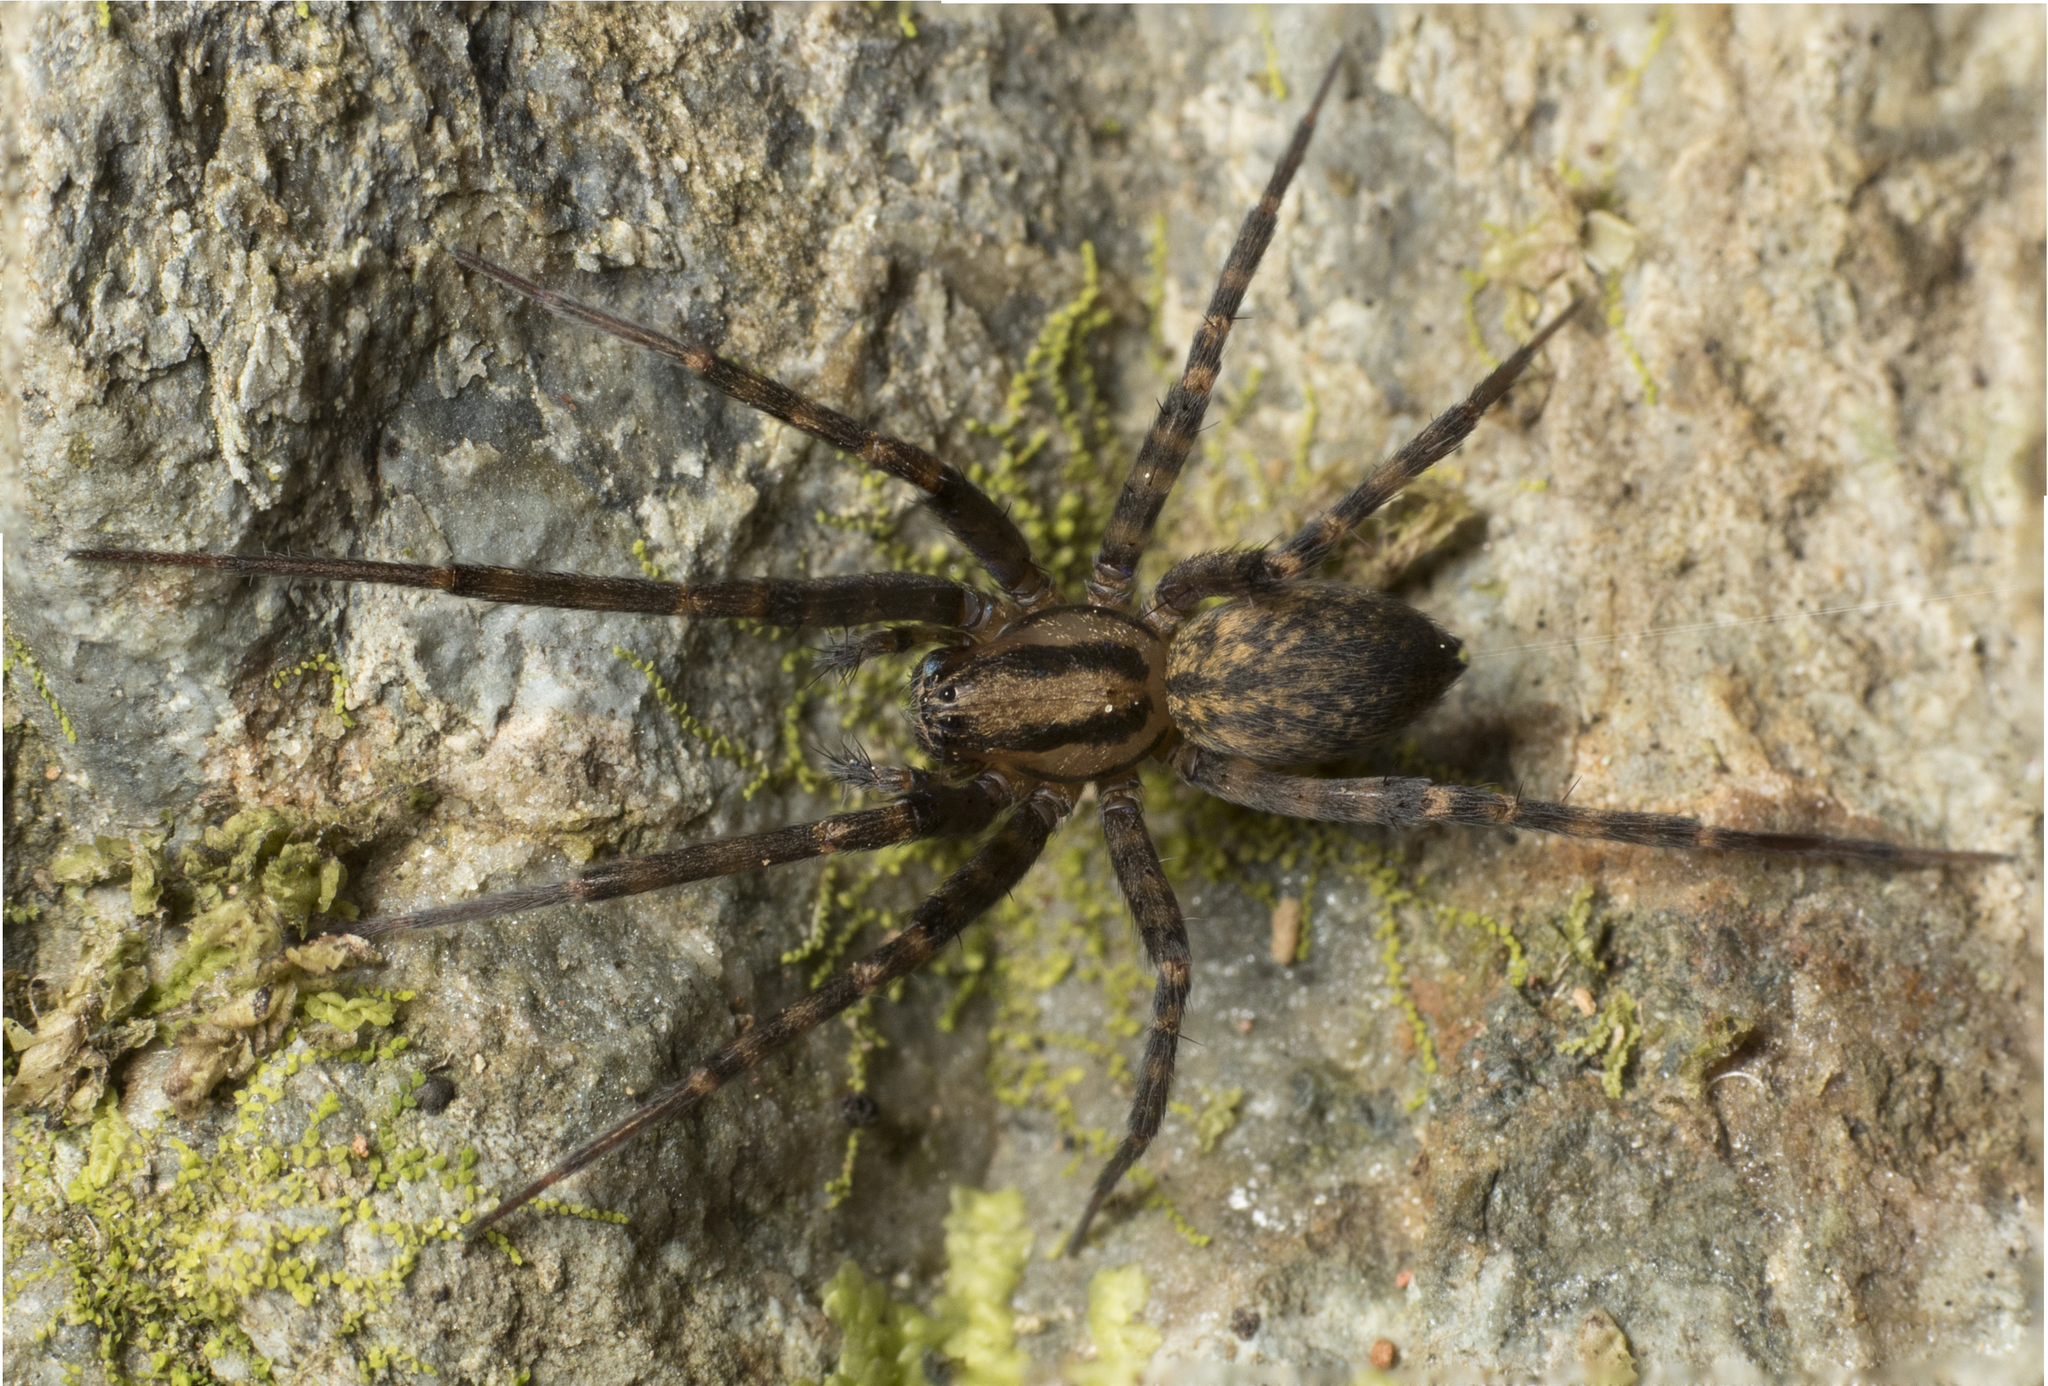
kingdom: Animalia
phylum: Arthropoda
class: Arachnida
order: Araneae
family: Stiphidiidae
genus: Couranga
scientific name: Couranga diehappy
